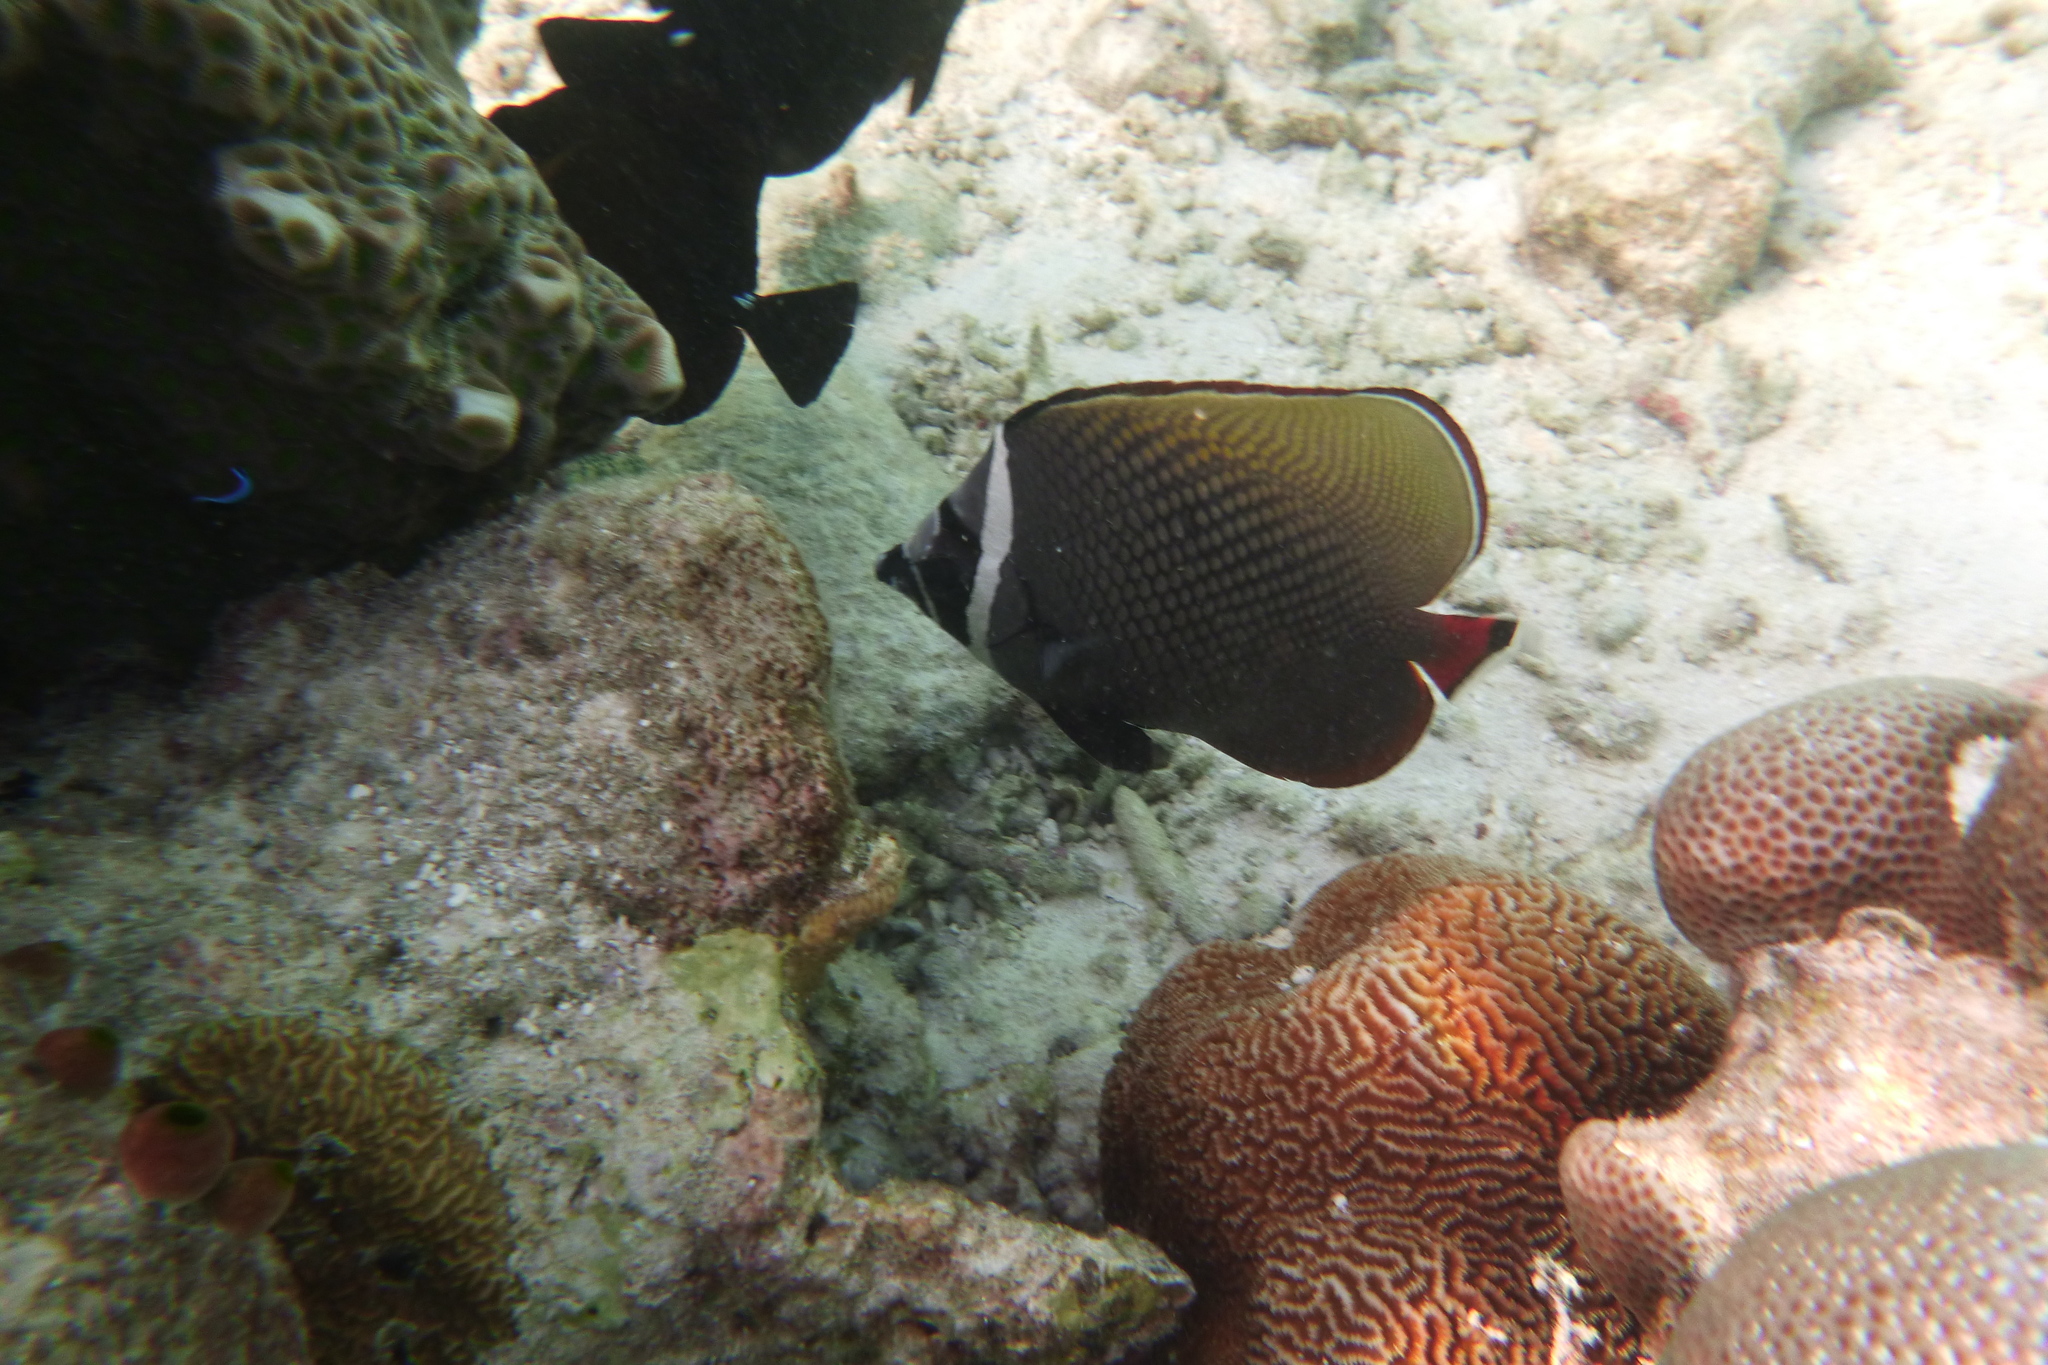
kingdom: Animalia
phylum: Chordata
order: Perciformes
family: Chaetodontidae
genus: Chaetodon
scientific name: Chaetodon collare
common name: Redtail butterflyfish
